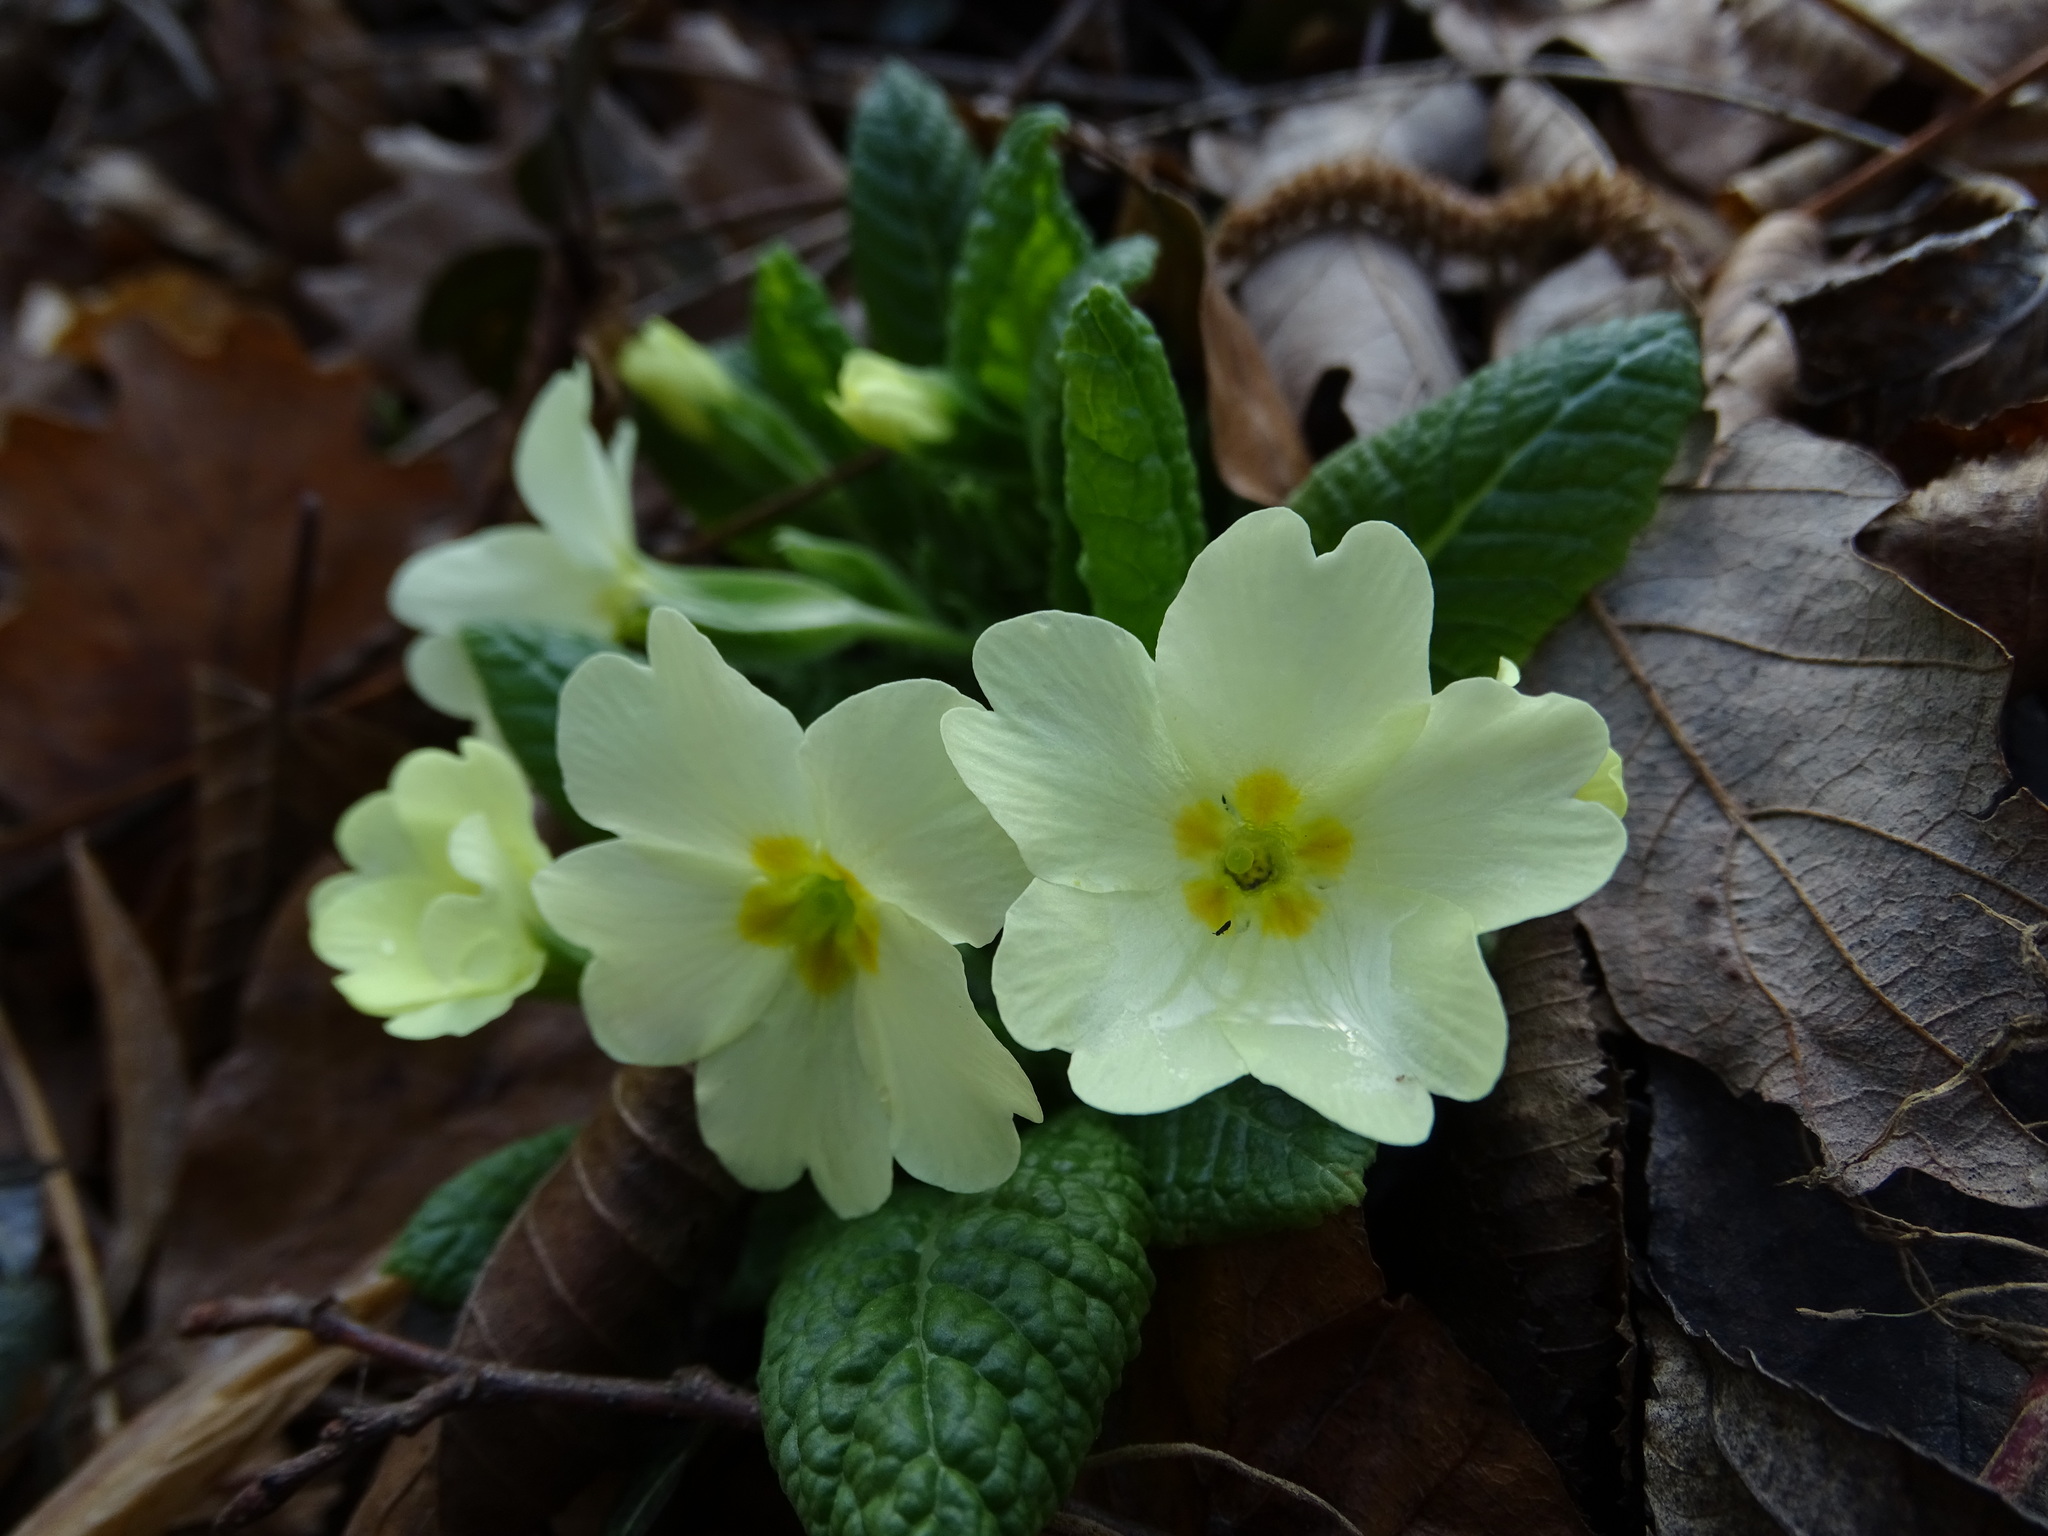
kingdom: Plantae
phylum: Tracheophyta
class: Magnoliopsida
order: Ericales
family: Primulaceae
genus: Primula
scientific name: Primula vulgaris
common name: Primrose
